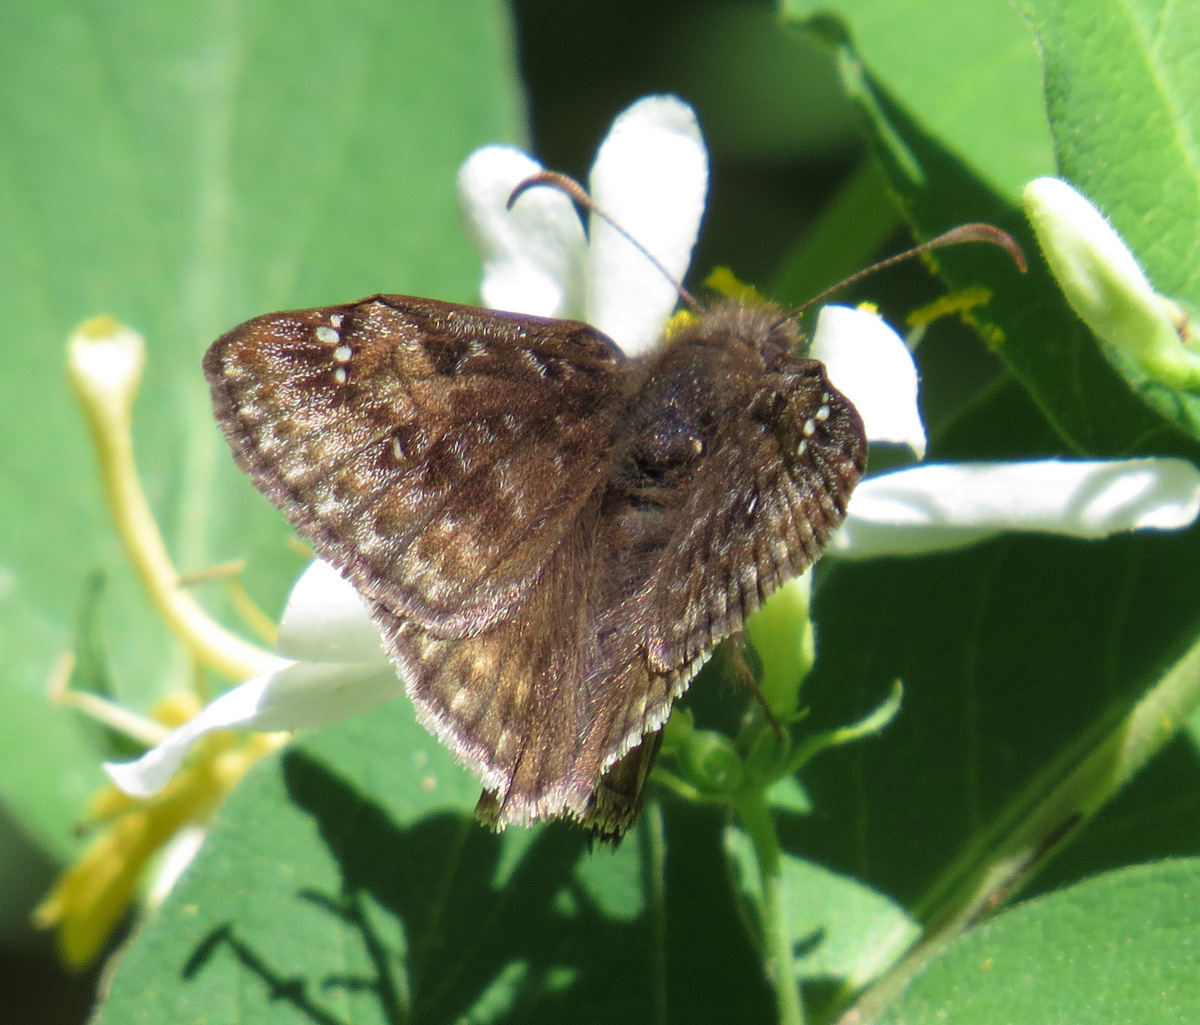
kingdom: Animalia
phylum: Arthropoda
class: Insecta
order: Lepidoptera
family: Hesperiidae
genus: Erynnis
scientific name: Erynnis baptisiae
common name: Wild indigo duskywing
